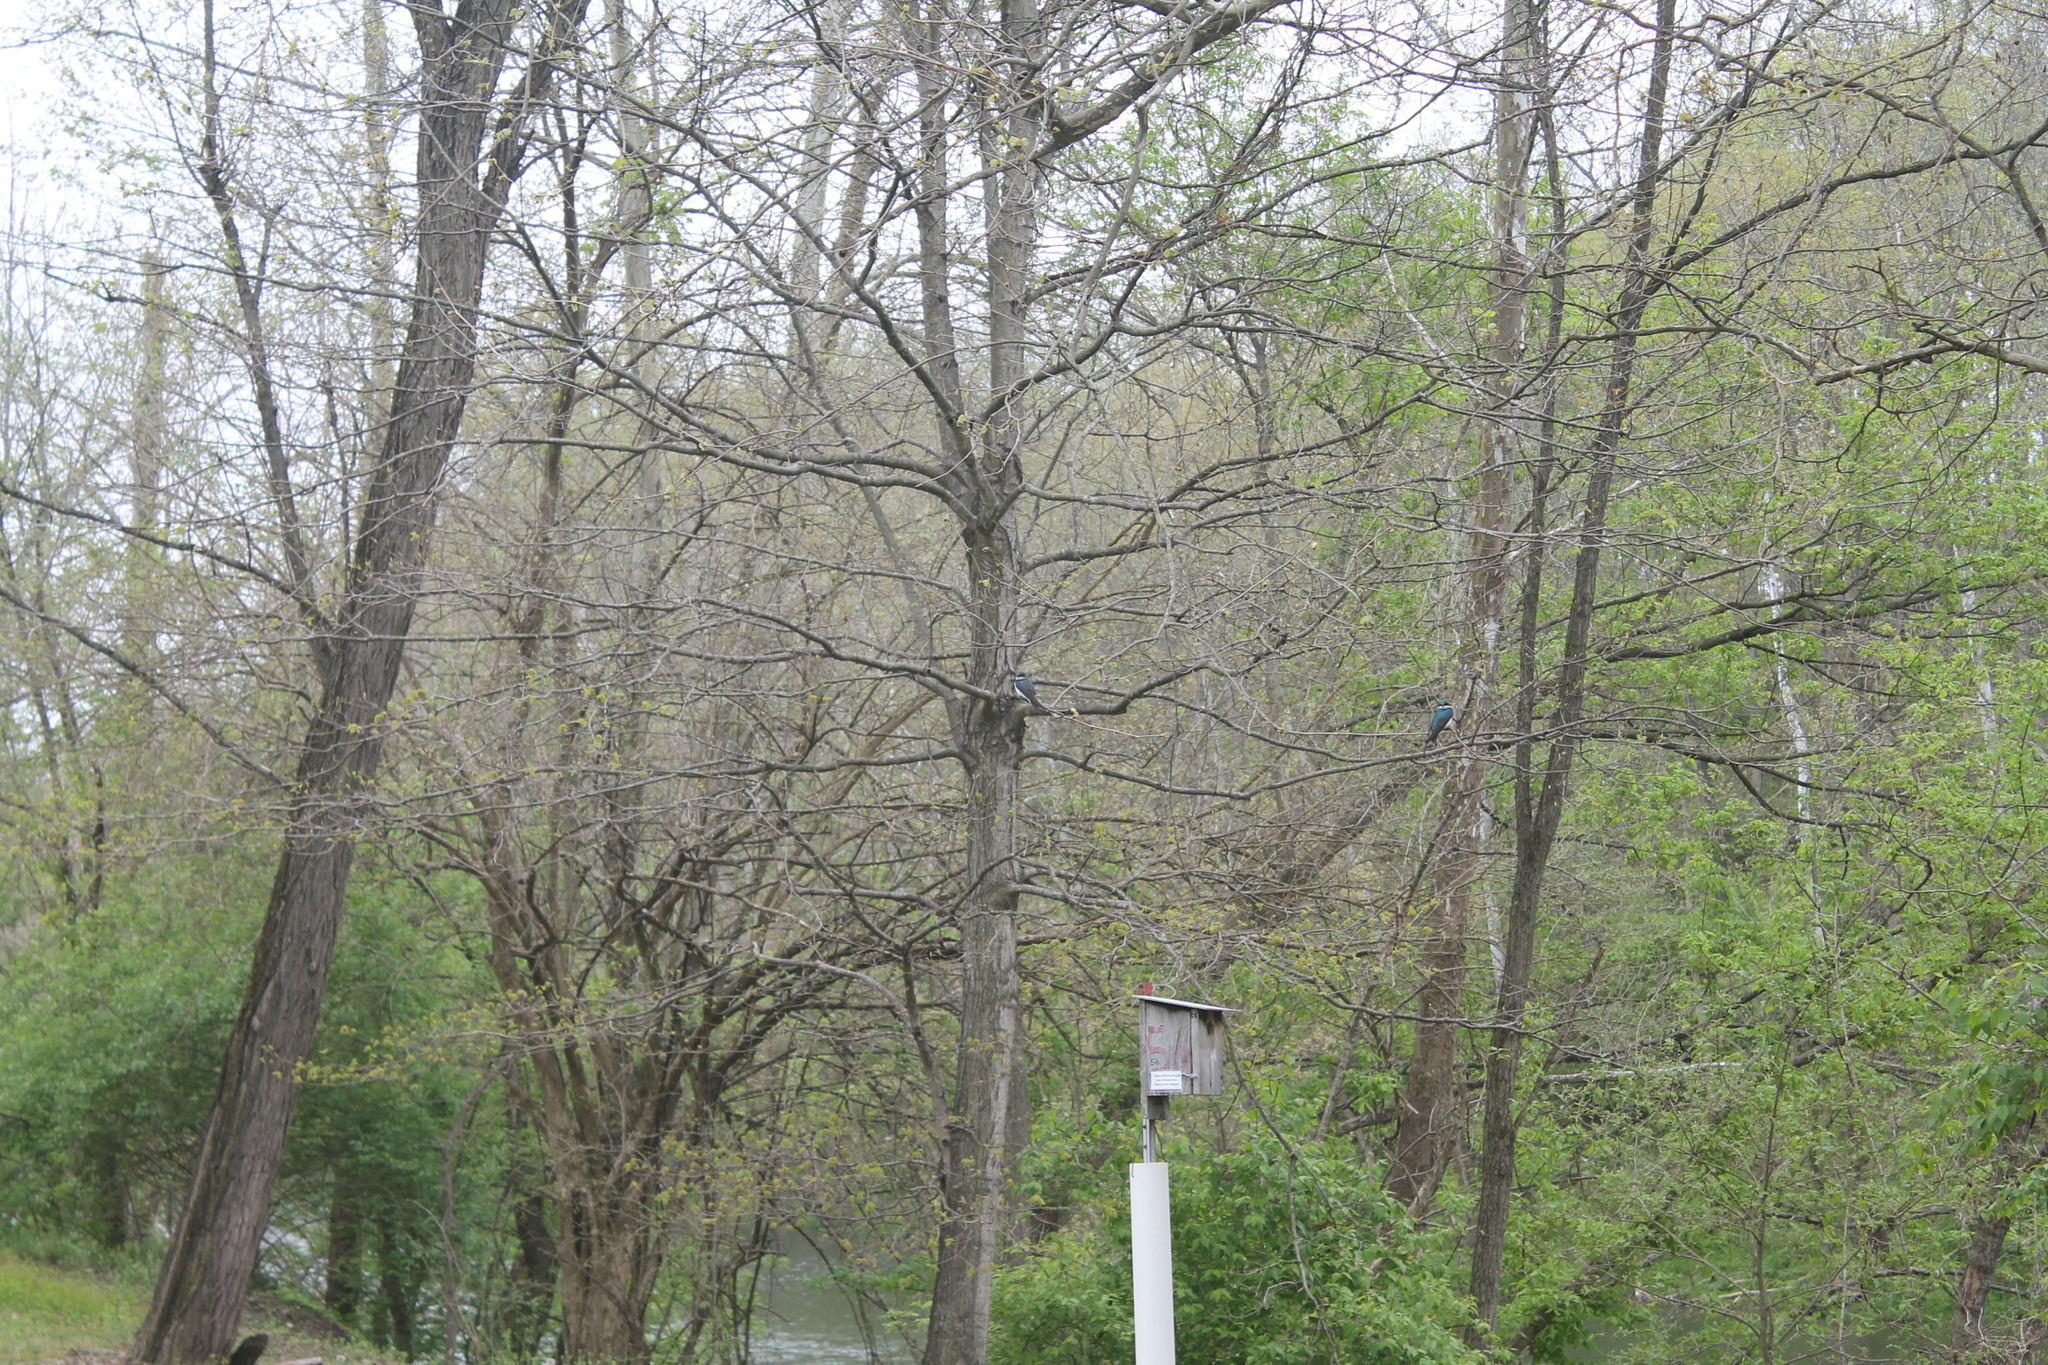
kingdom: Animalia
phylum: Chordata
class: Aves
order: Passeriformes
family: Hirundinidae
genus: Tachycineta
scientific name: Tachycineta bicolor
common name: Tree swallow
